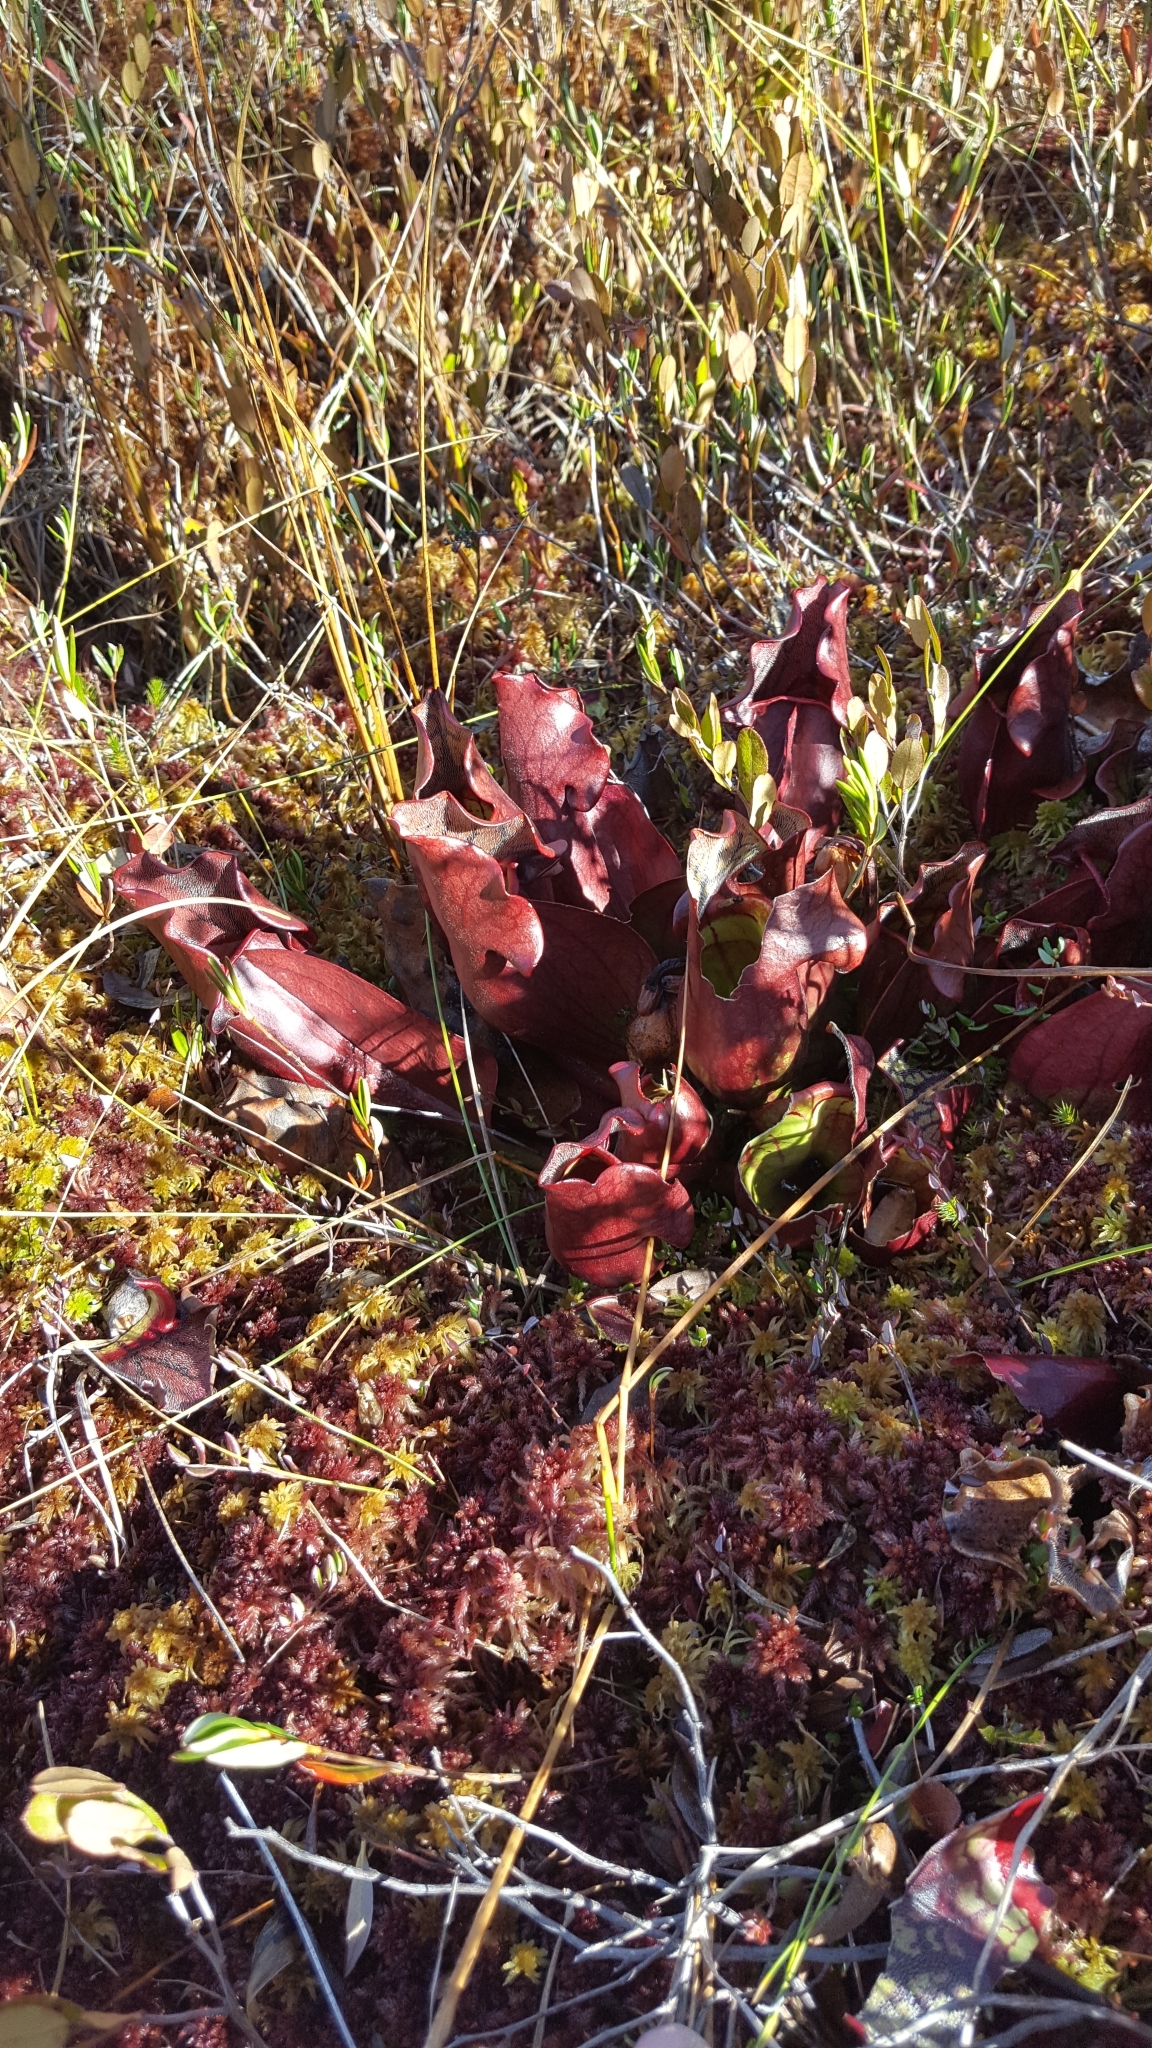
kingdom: Plantae
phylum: Tracheophyta
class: Magnoliopsida
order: Ericales
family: Sarraceniaceae
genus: Sarracenia
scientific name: Sarracenia purpurea
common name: Pitcherplant
